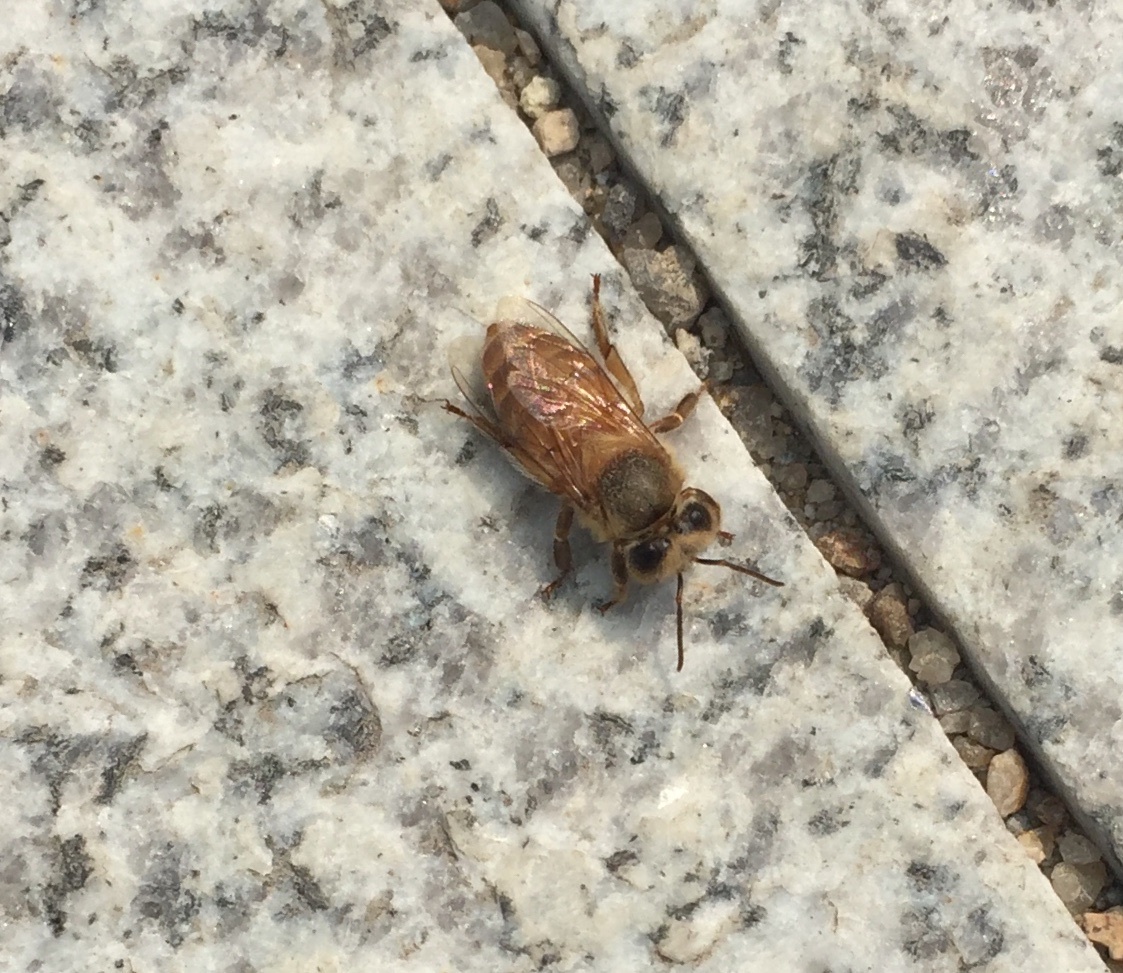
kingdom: Animalia
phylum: Arthropoda
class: Insecta
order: Hymenoptera
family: Apidae
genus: Apis
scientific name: Apis
